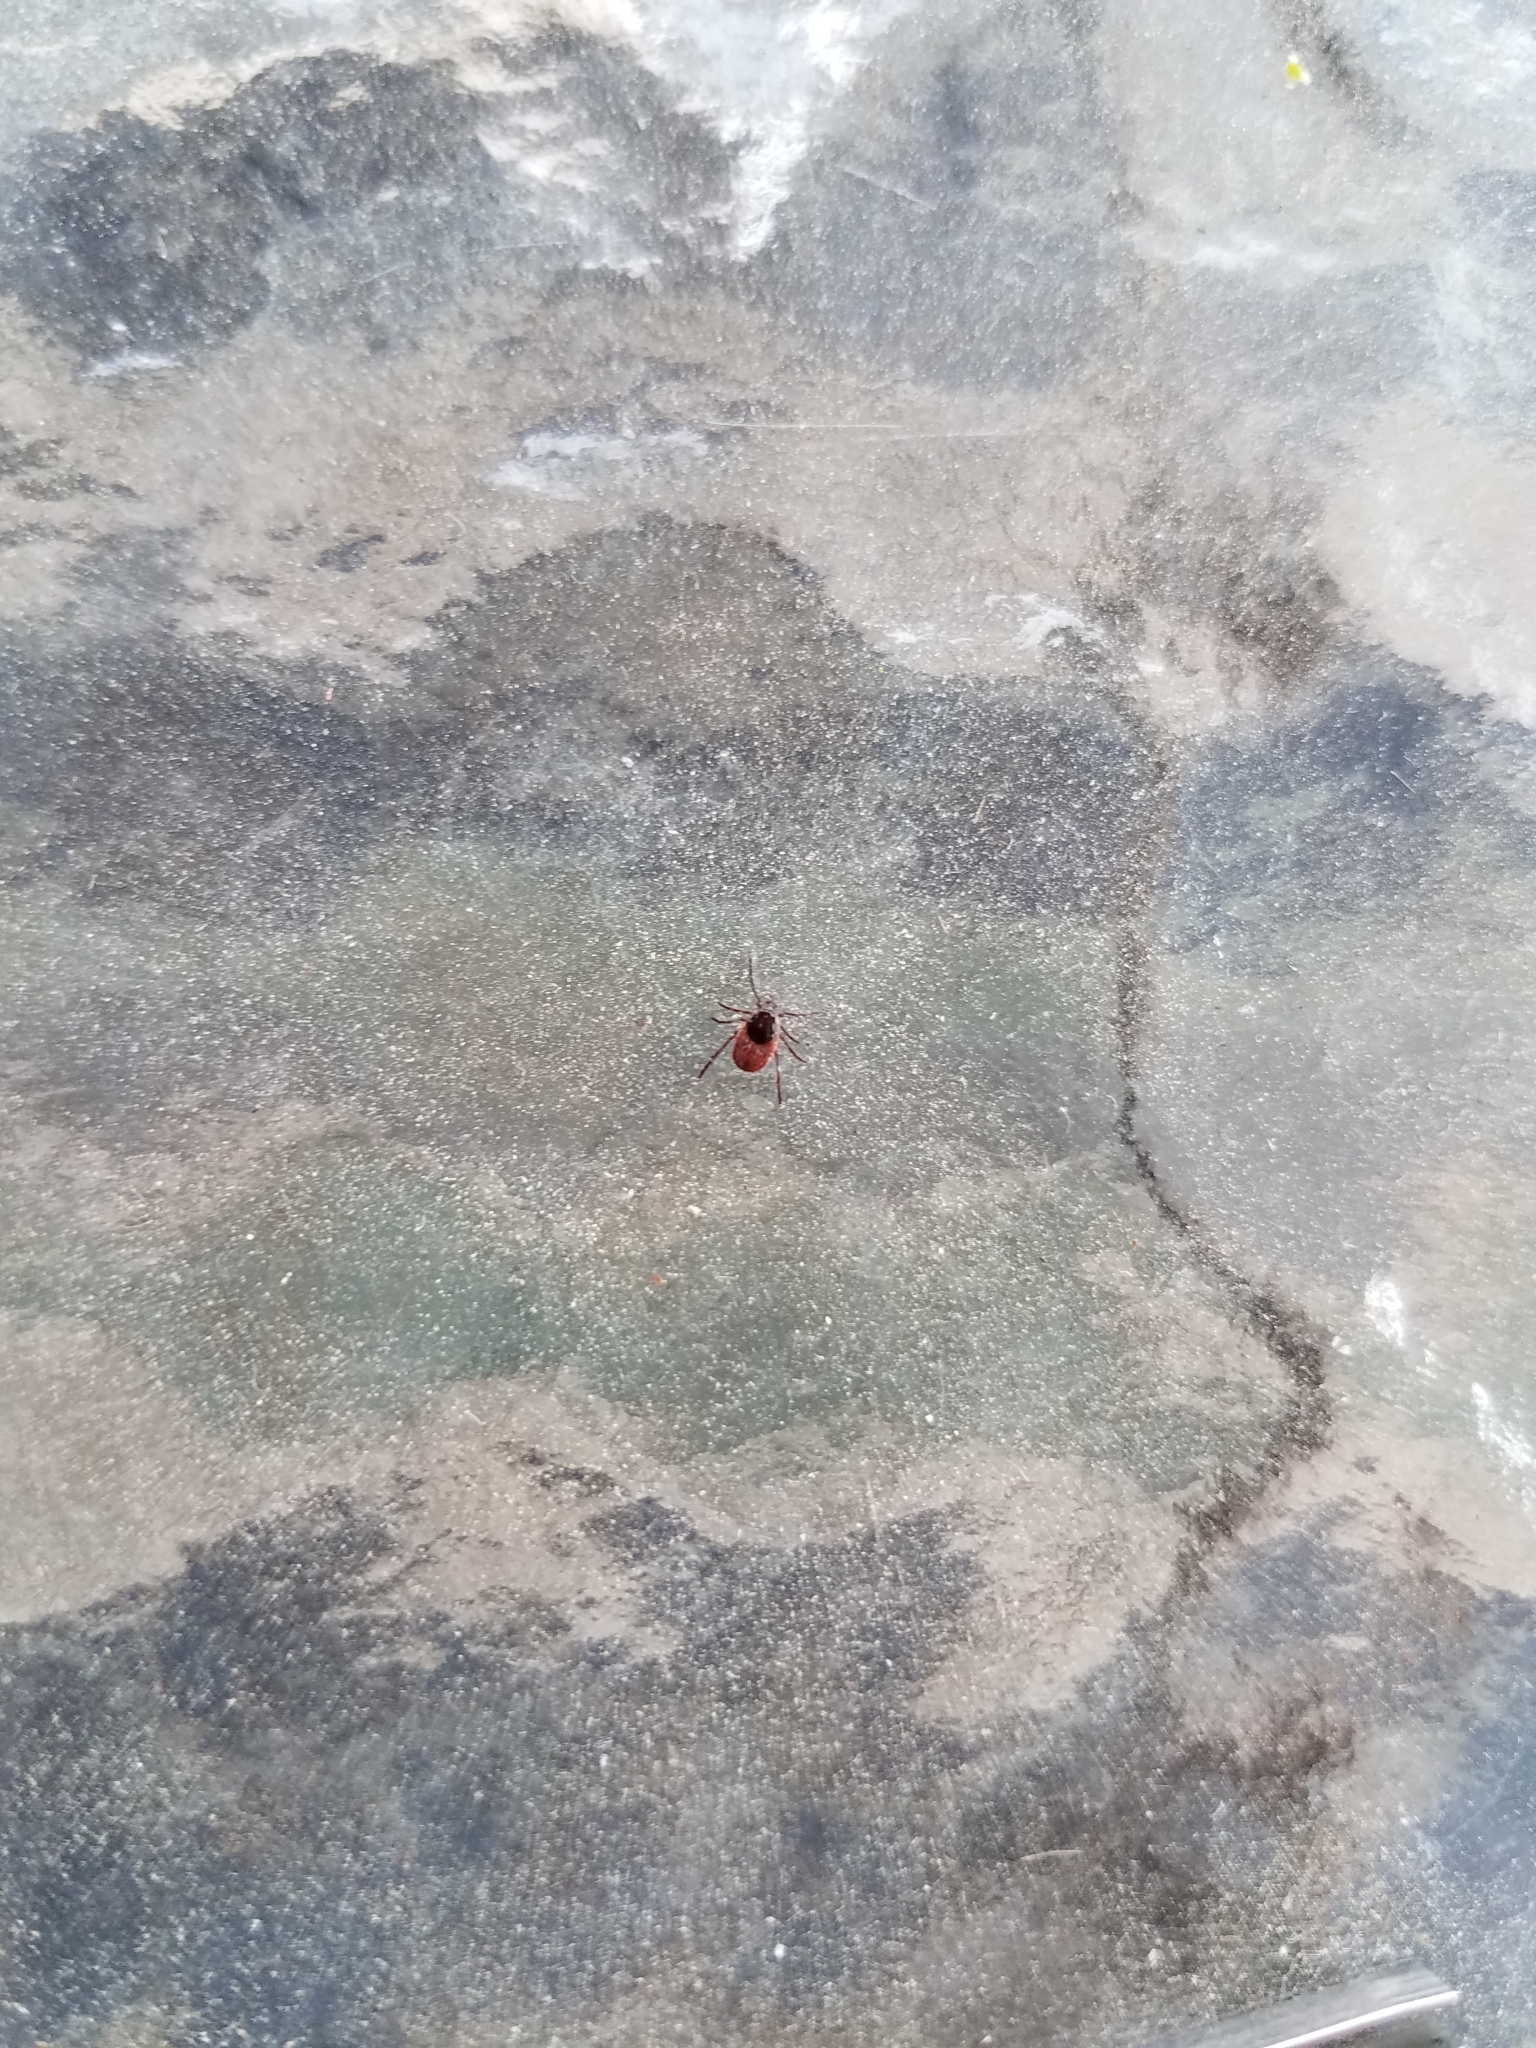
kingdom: Animalia
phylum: Arthropoda
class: Arachnida
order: Ixodida
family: Ixodidae
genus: Ixodes
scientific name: Ixodes pacificus
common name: California black-legged tick
